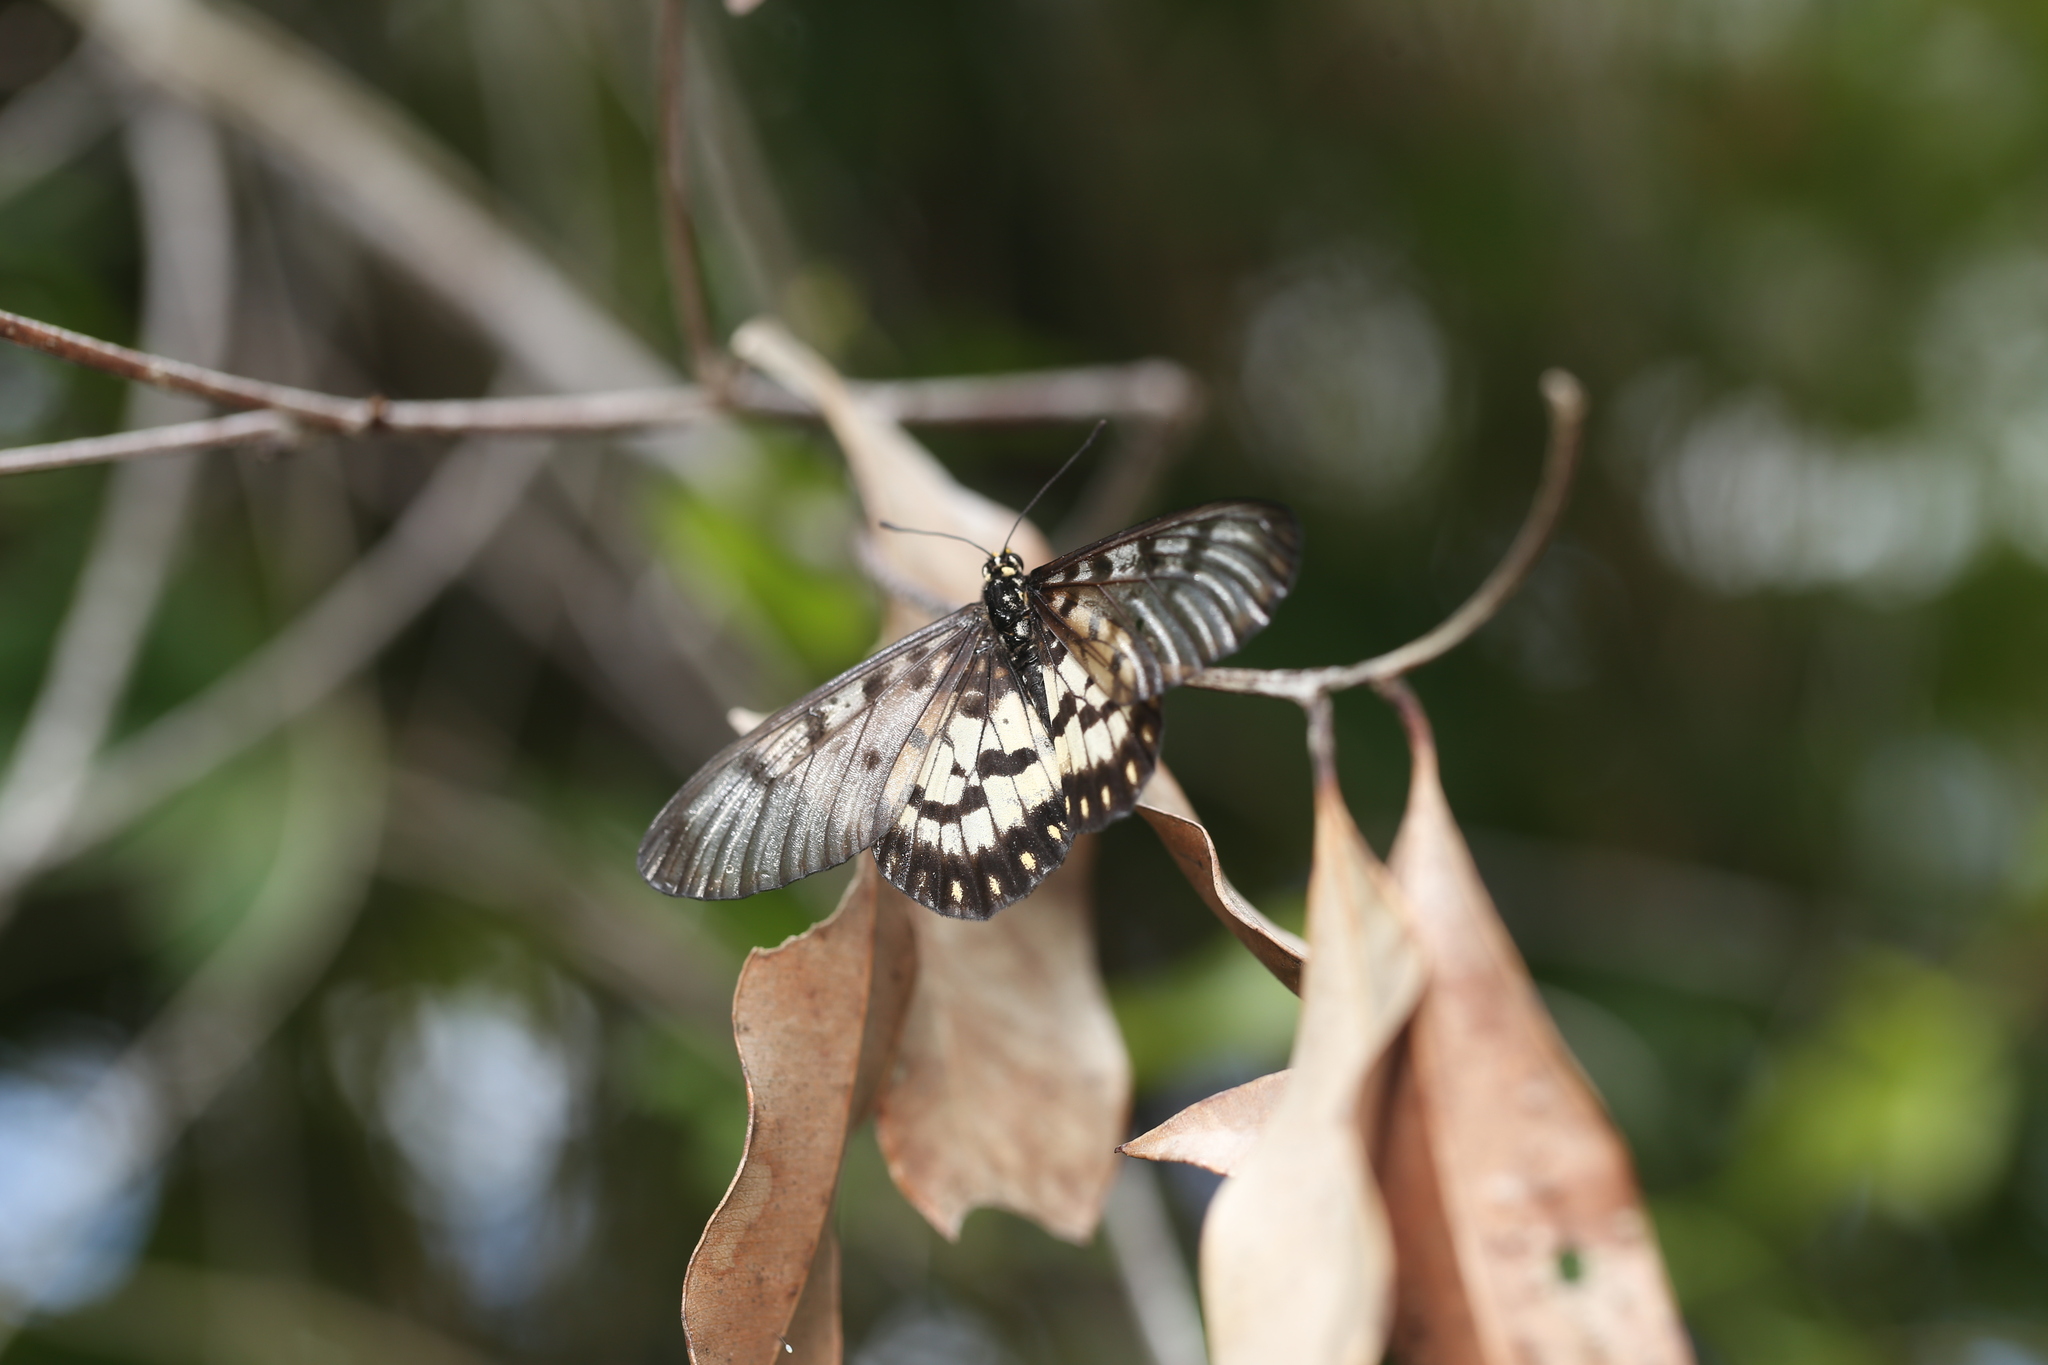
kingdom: Animalia
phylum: Arthropoda
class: Insecta
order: Lepidoptera
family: Nymphalidae
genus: Acraea
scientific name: Acraea andromacha
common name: Glasswing
